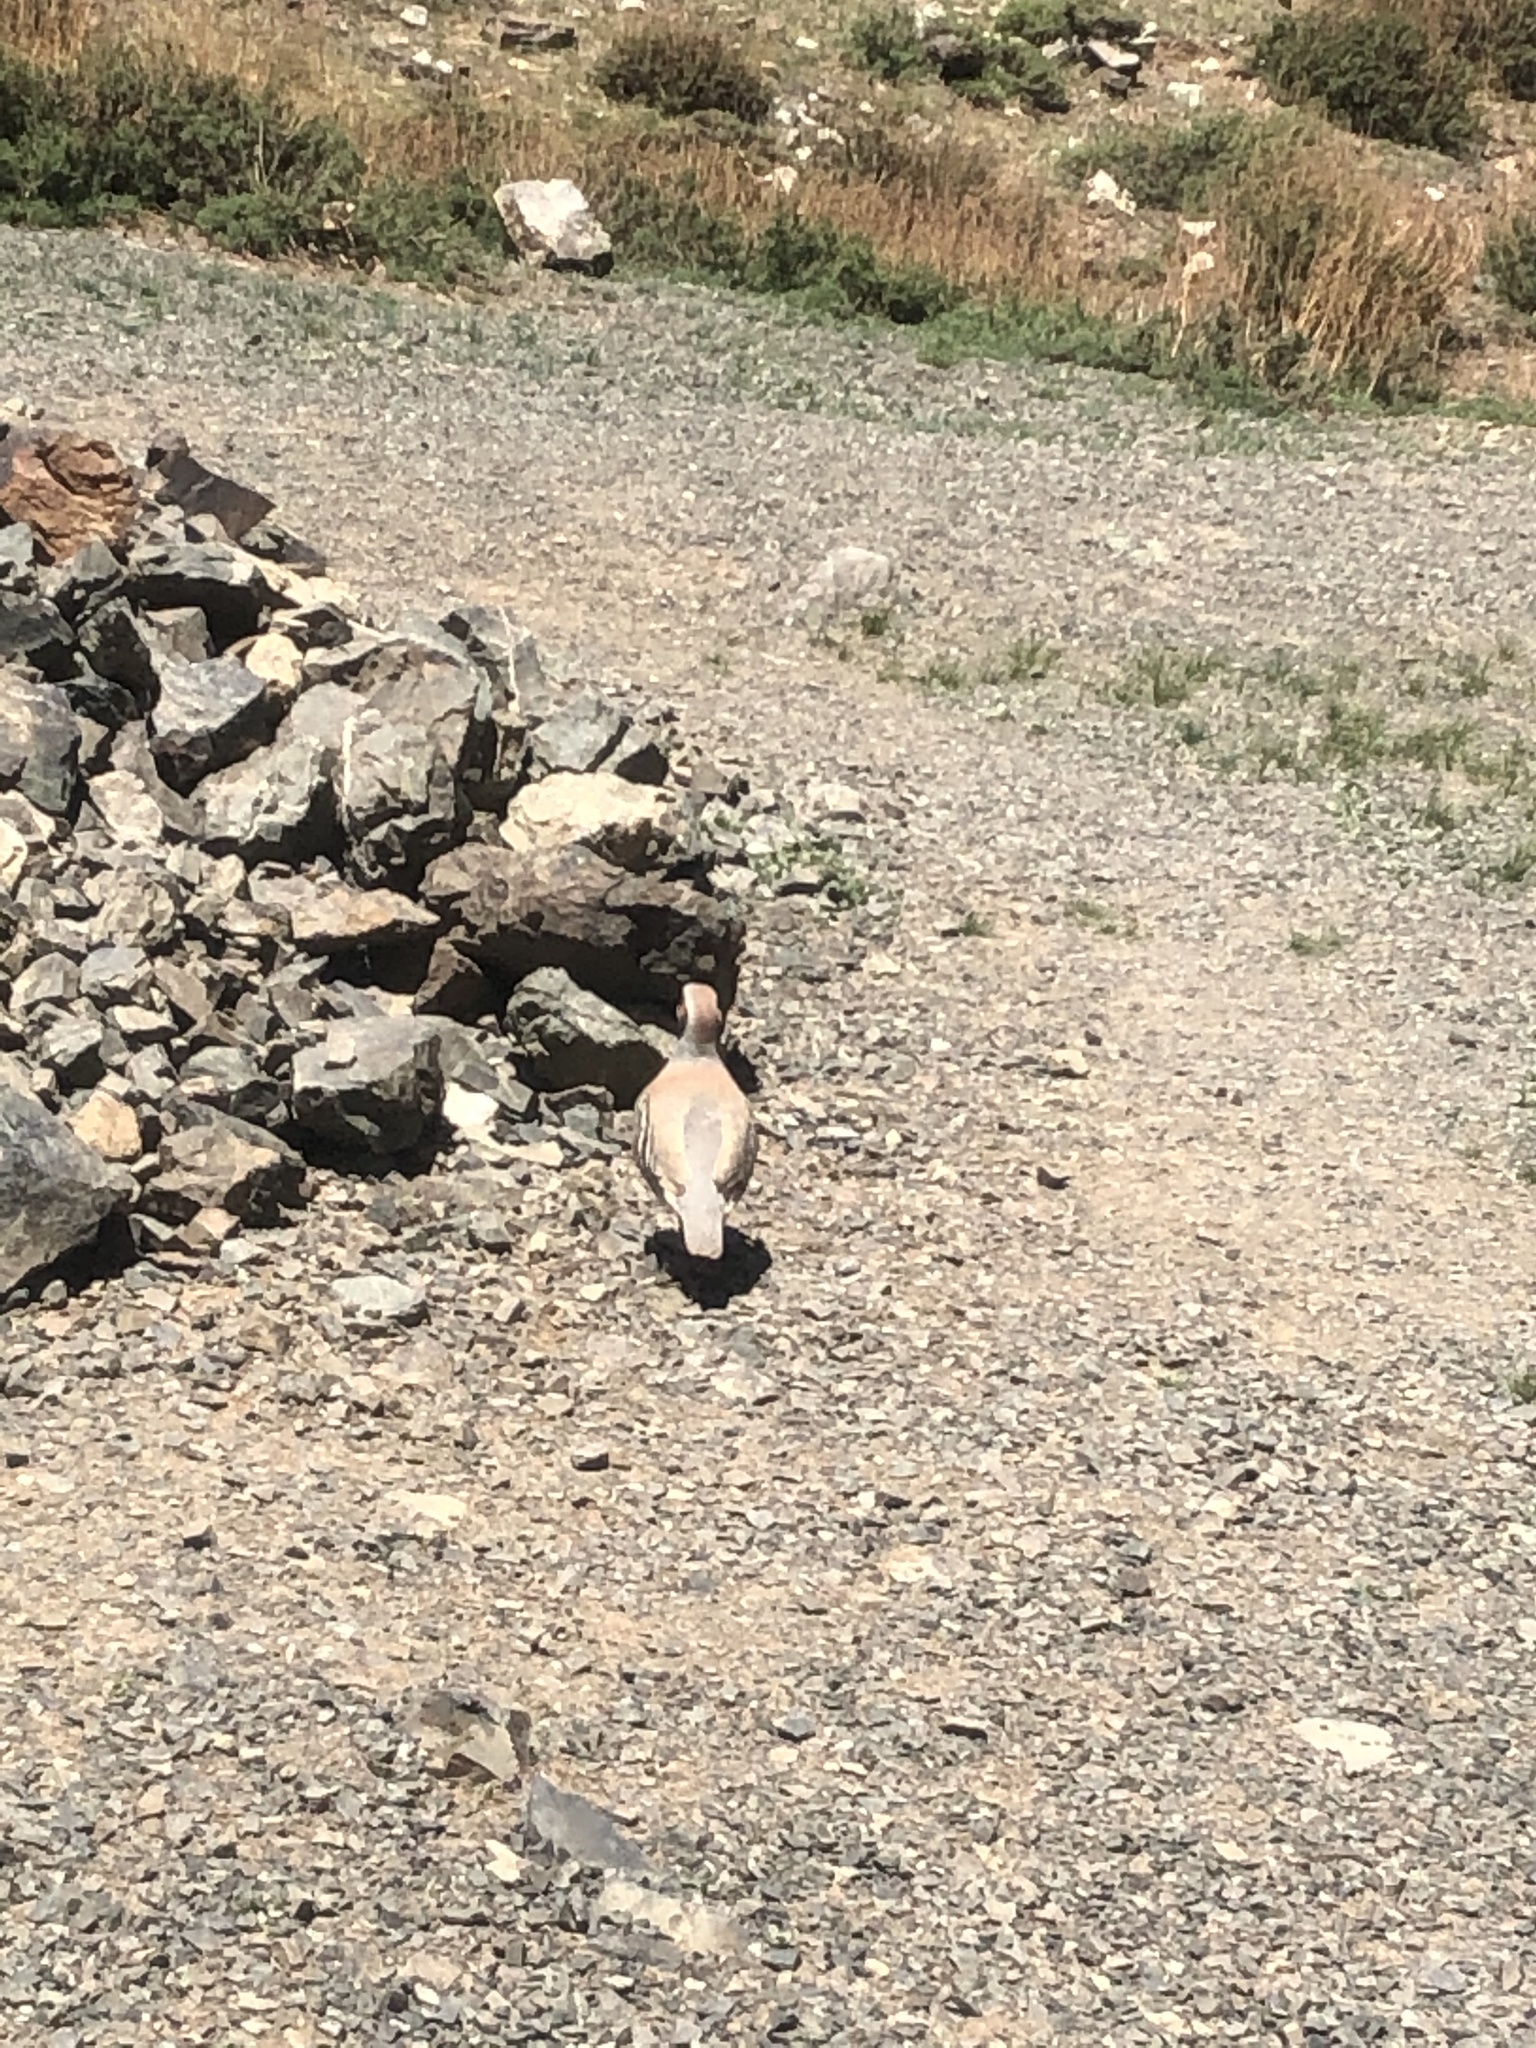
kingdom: Animalia
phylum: Chordata
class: Aves
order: Galliformes
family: Phasianidae
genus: Alectoris
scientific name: Alectoris chukar
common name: Chukar
